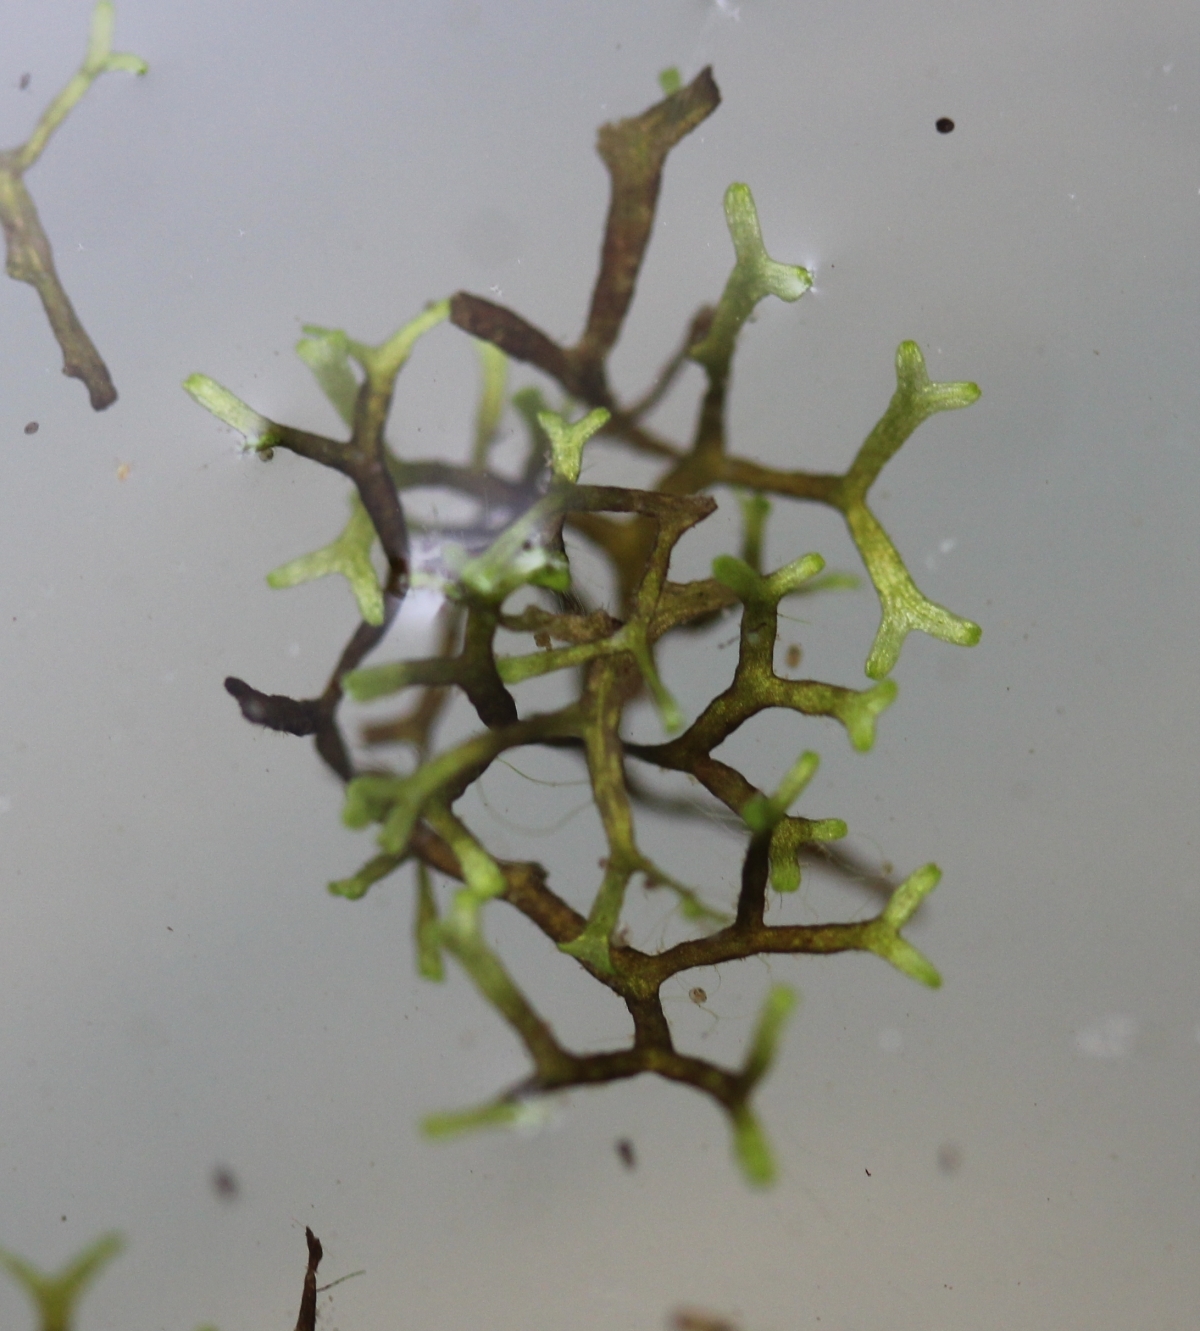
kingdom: Plantae
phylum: Marchantiophyta
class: Marchantiopsida
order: Marchantiales
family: Ricciaceae
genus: Riccia
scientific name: Riccia fluitans
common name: Floating crystalwort
